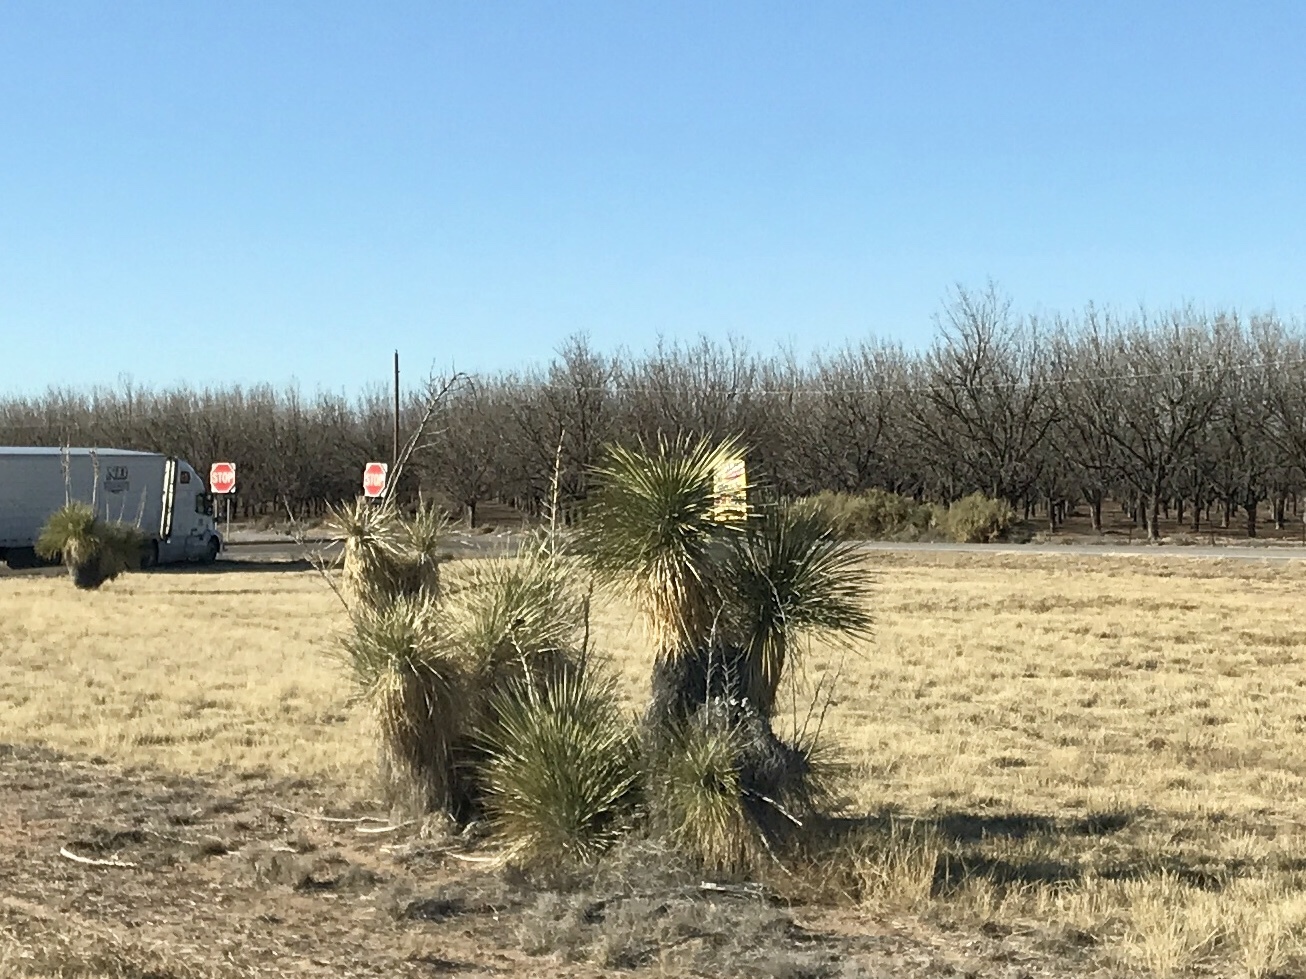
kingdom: Plantae
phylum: Tracheophyta
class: Liliopsida
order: Asparagales
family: Asparagaceae
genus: Yucca
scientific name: Yucca elata
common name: Palmella
